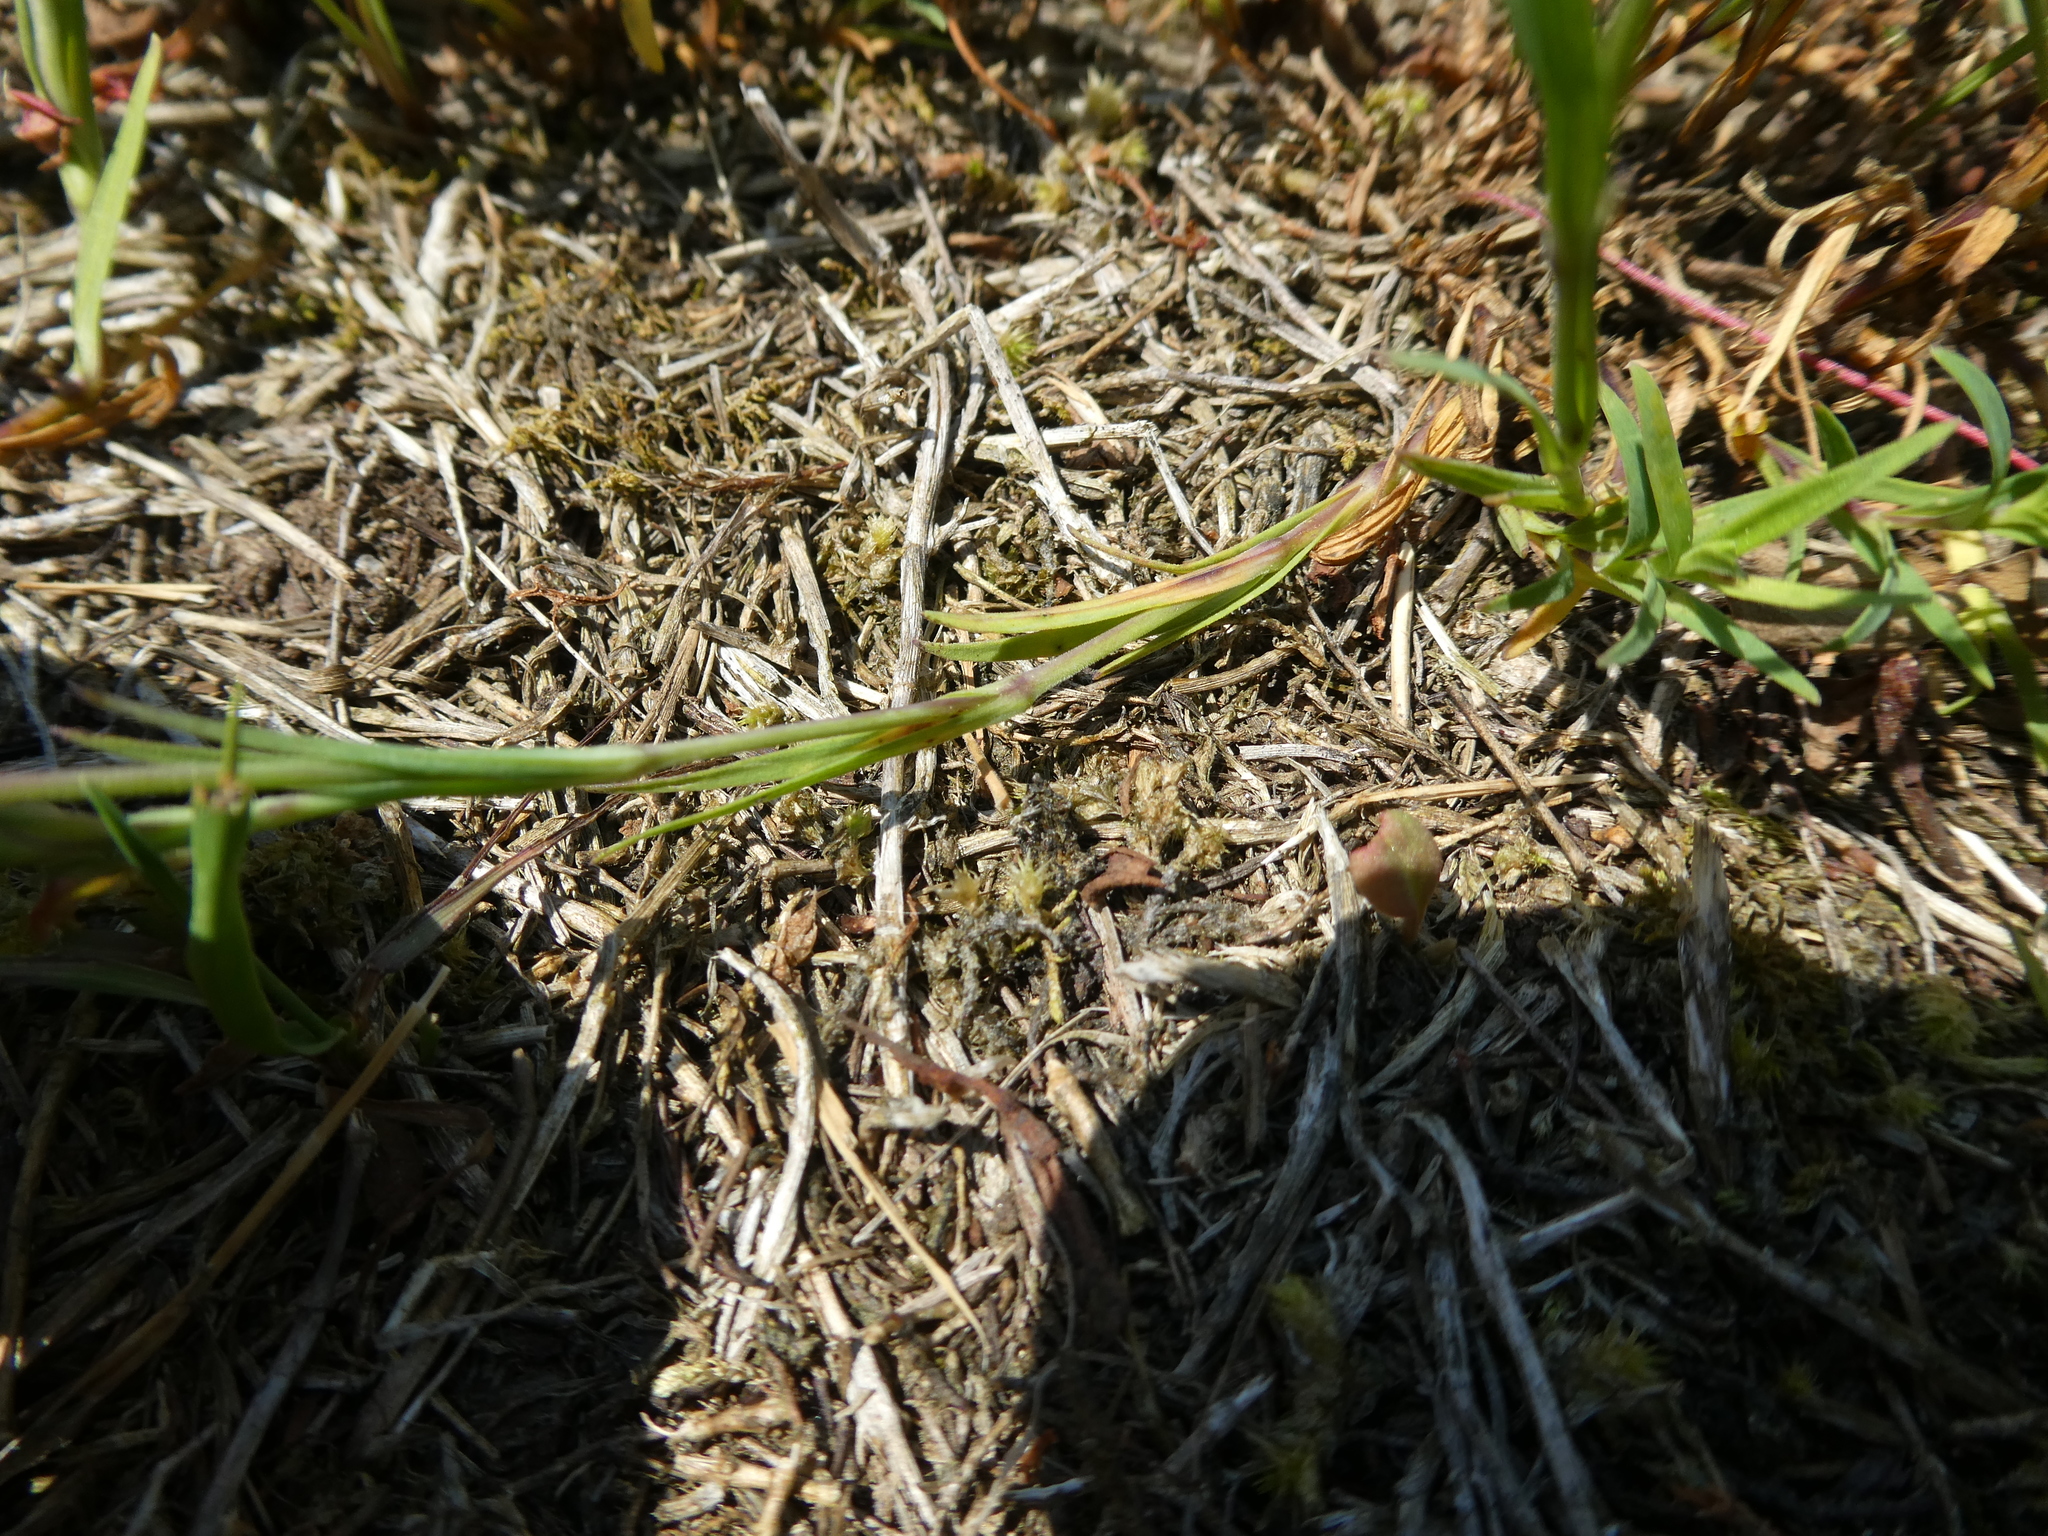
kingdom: Plantae
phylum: Tracheophyta
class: Magnoliopsida
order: Caryophyllales
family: Caryophyllaceae
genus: Dianthus
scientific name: Dianthus deltoides
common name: Maiden pink
